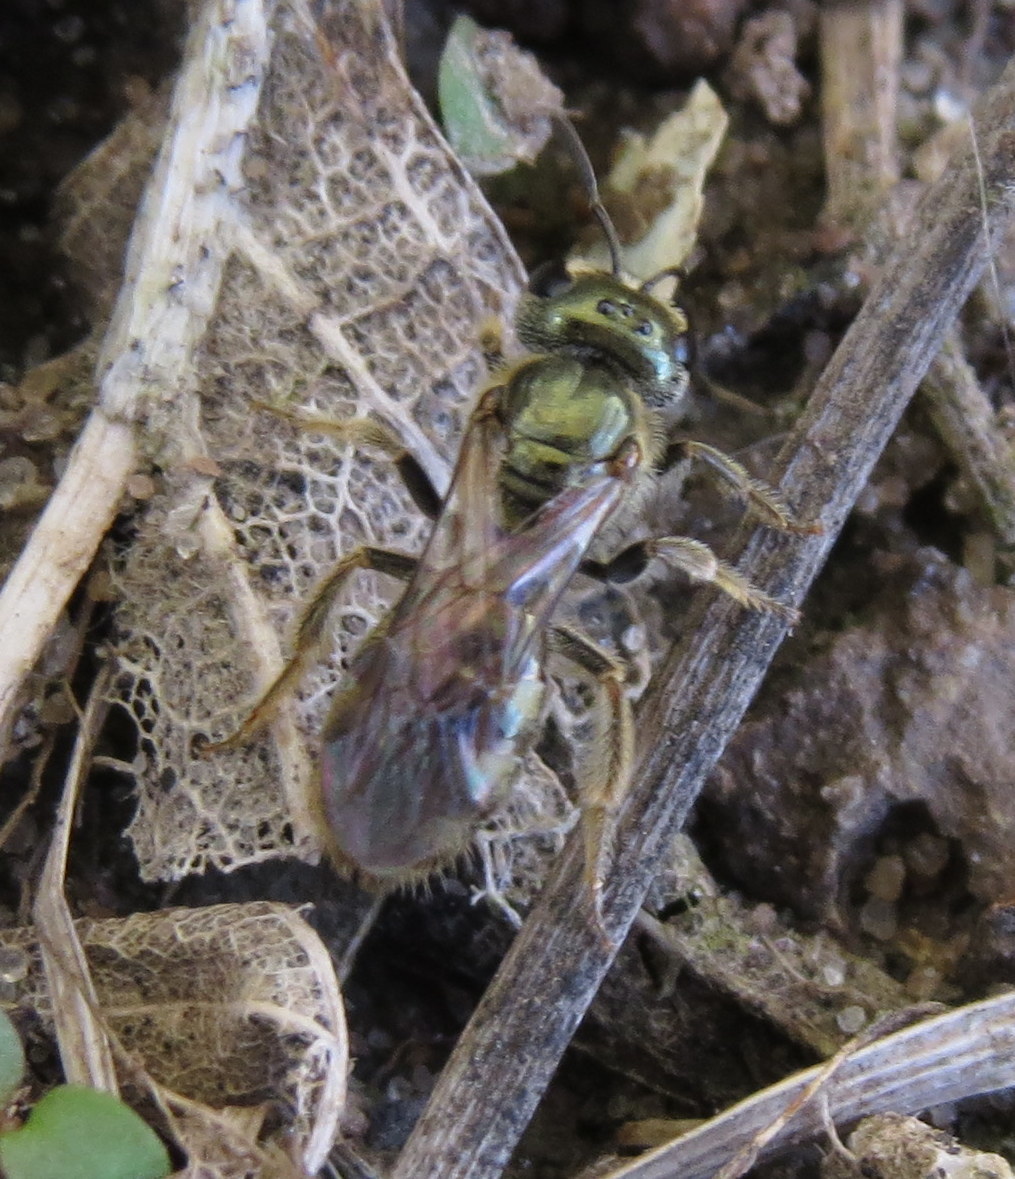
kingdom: Animalia
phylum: Arthropoda
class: Insecta
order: Hymenoptera
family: Halictidae
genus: Lasioglossum
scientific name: Lasioglossum zephyrum
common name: Zephyr sweat bee
